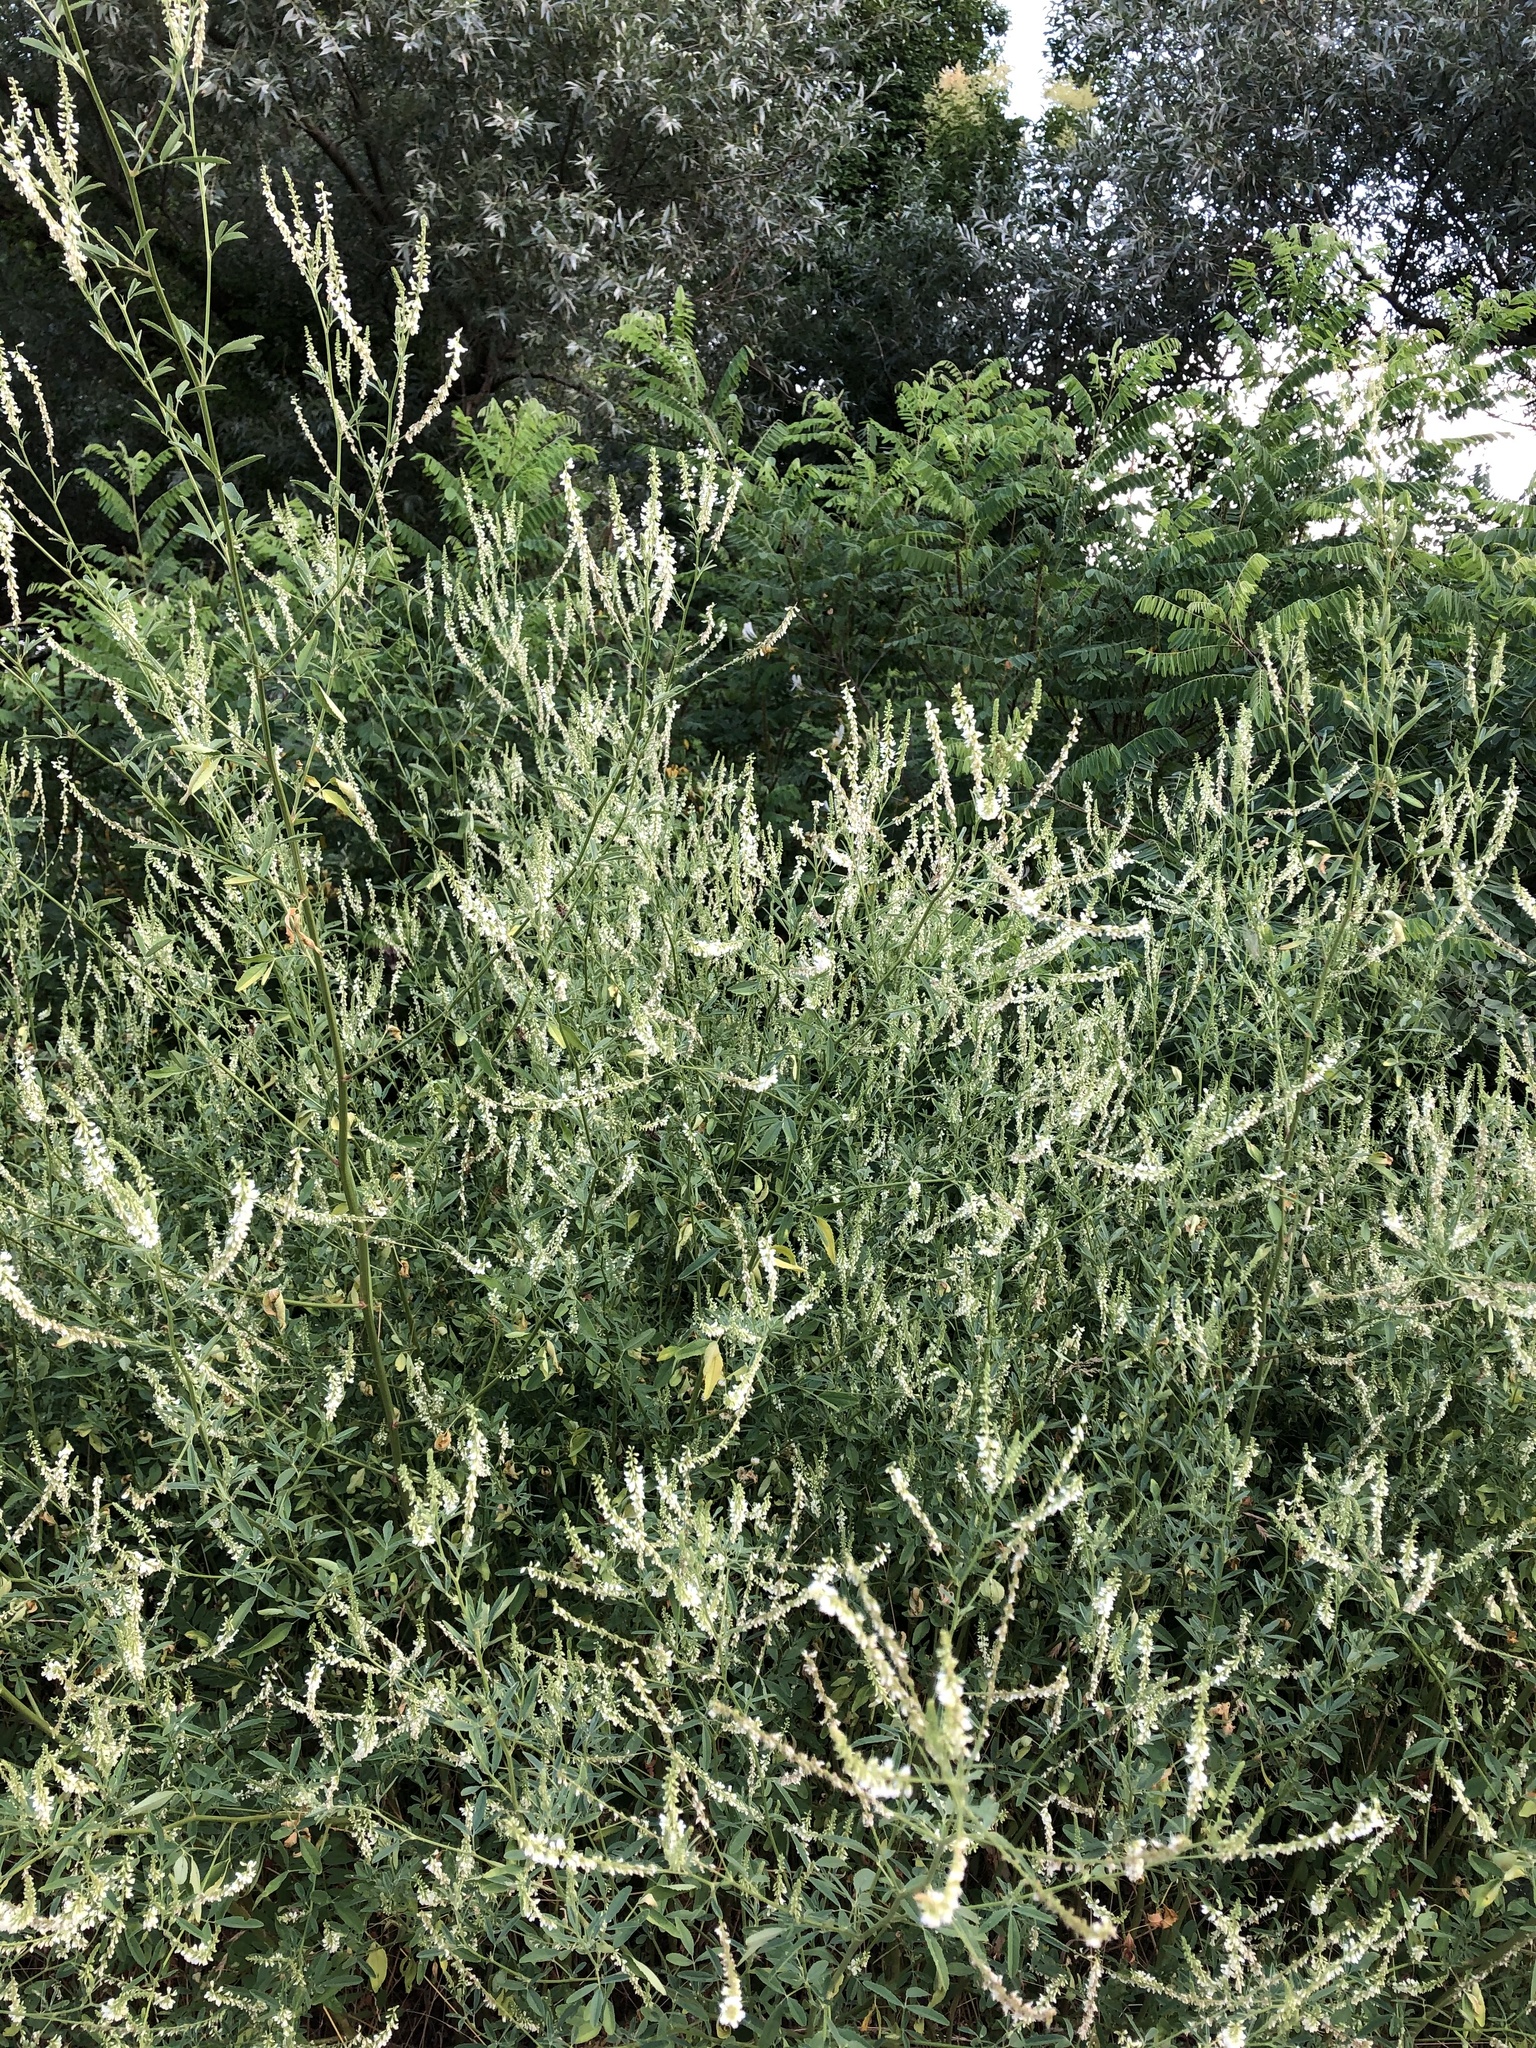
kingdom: Plantae
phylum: Tracheophyta
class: Magnoliopsida
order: Fabales
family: Fabaceae
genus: Melilotus
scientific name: Melilotus albus
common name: White melilot
